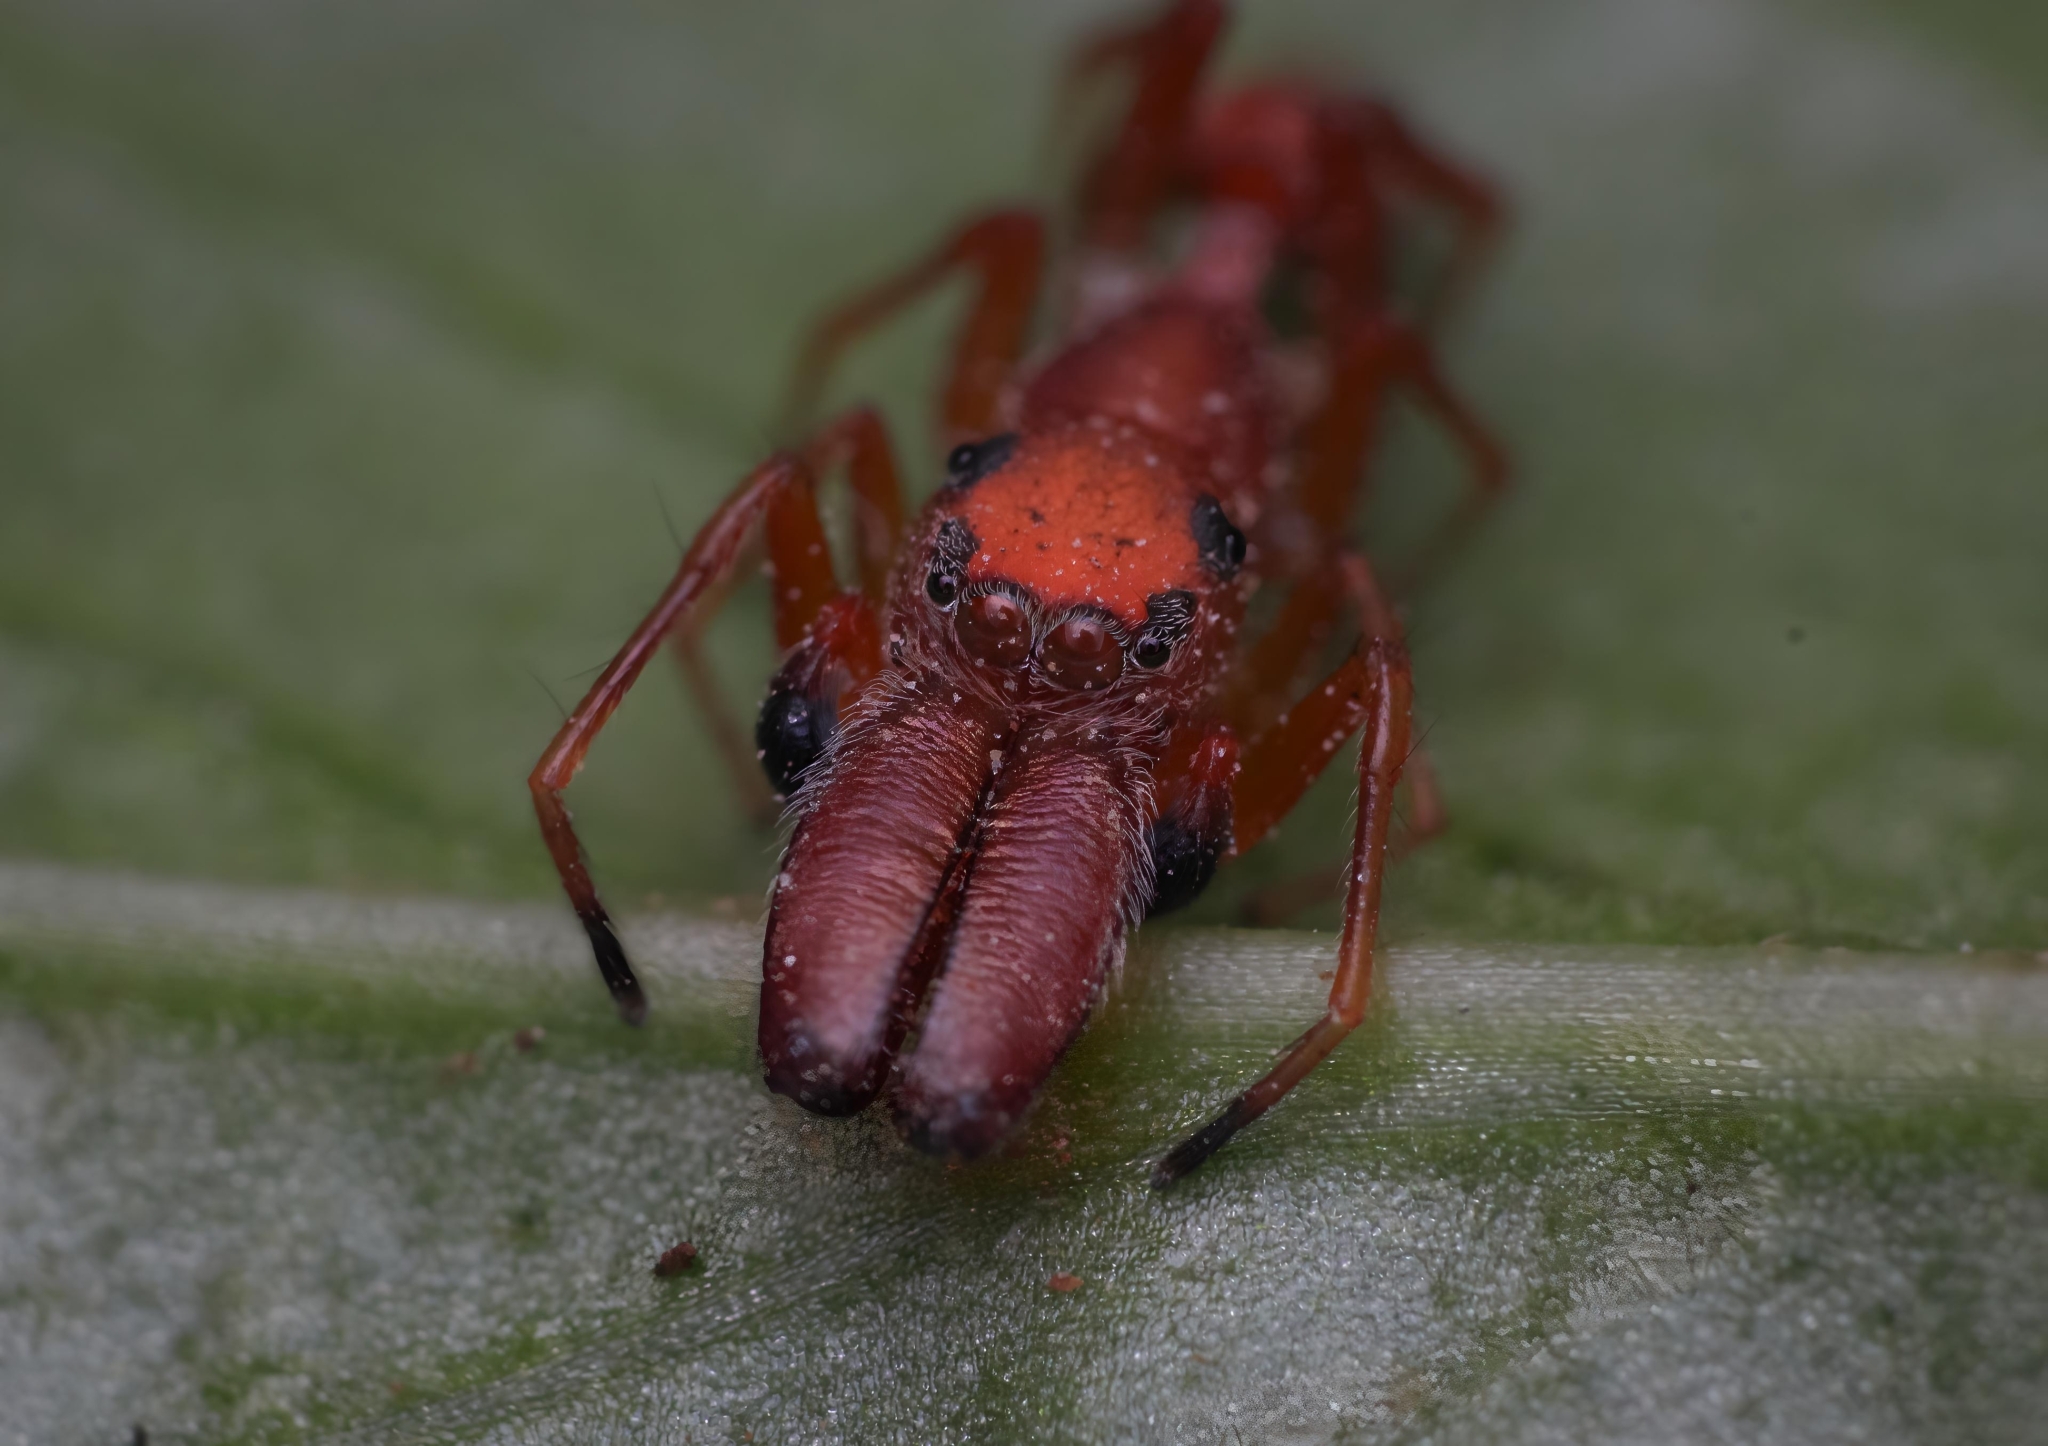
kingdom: Animalia
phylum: Arthropoda
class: Arachnida
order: Araneae
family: Salticidae
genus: Myrmarachne
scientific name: Myrmarachne ichneumon
